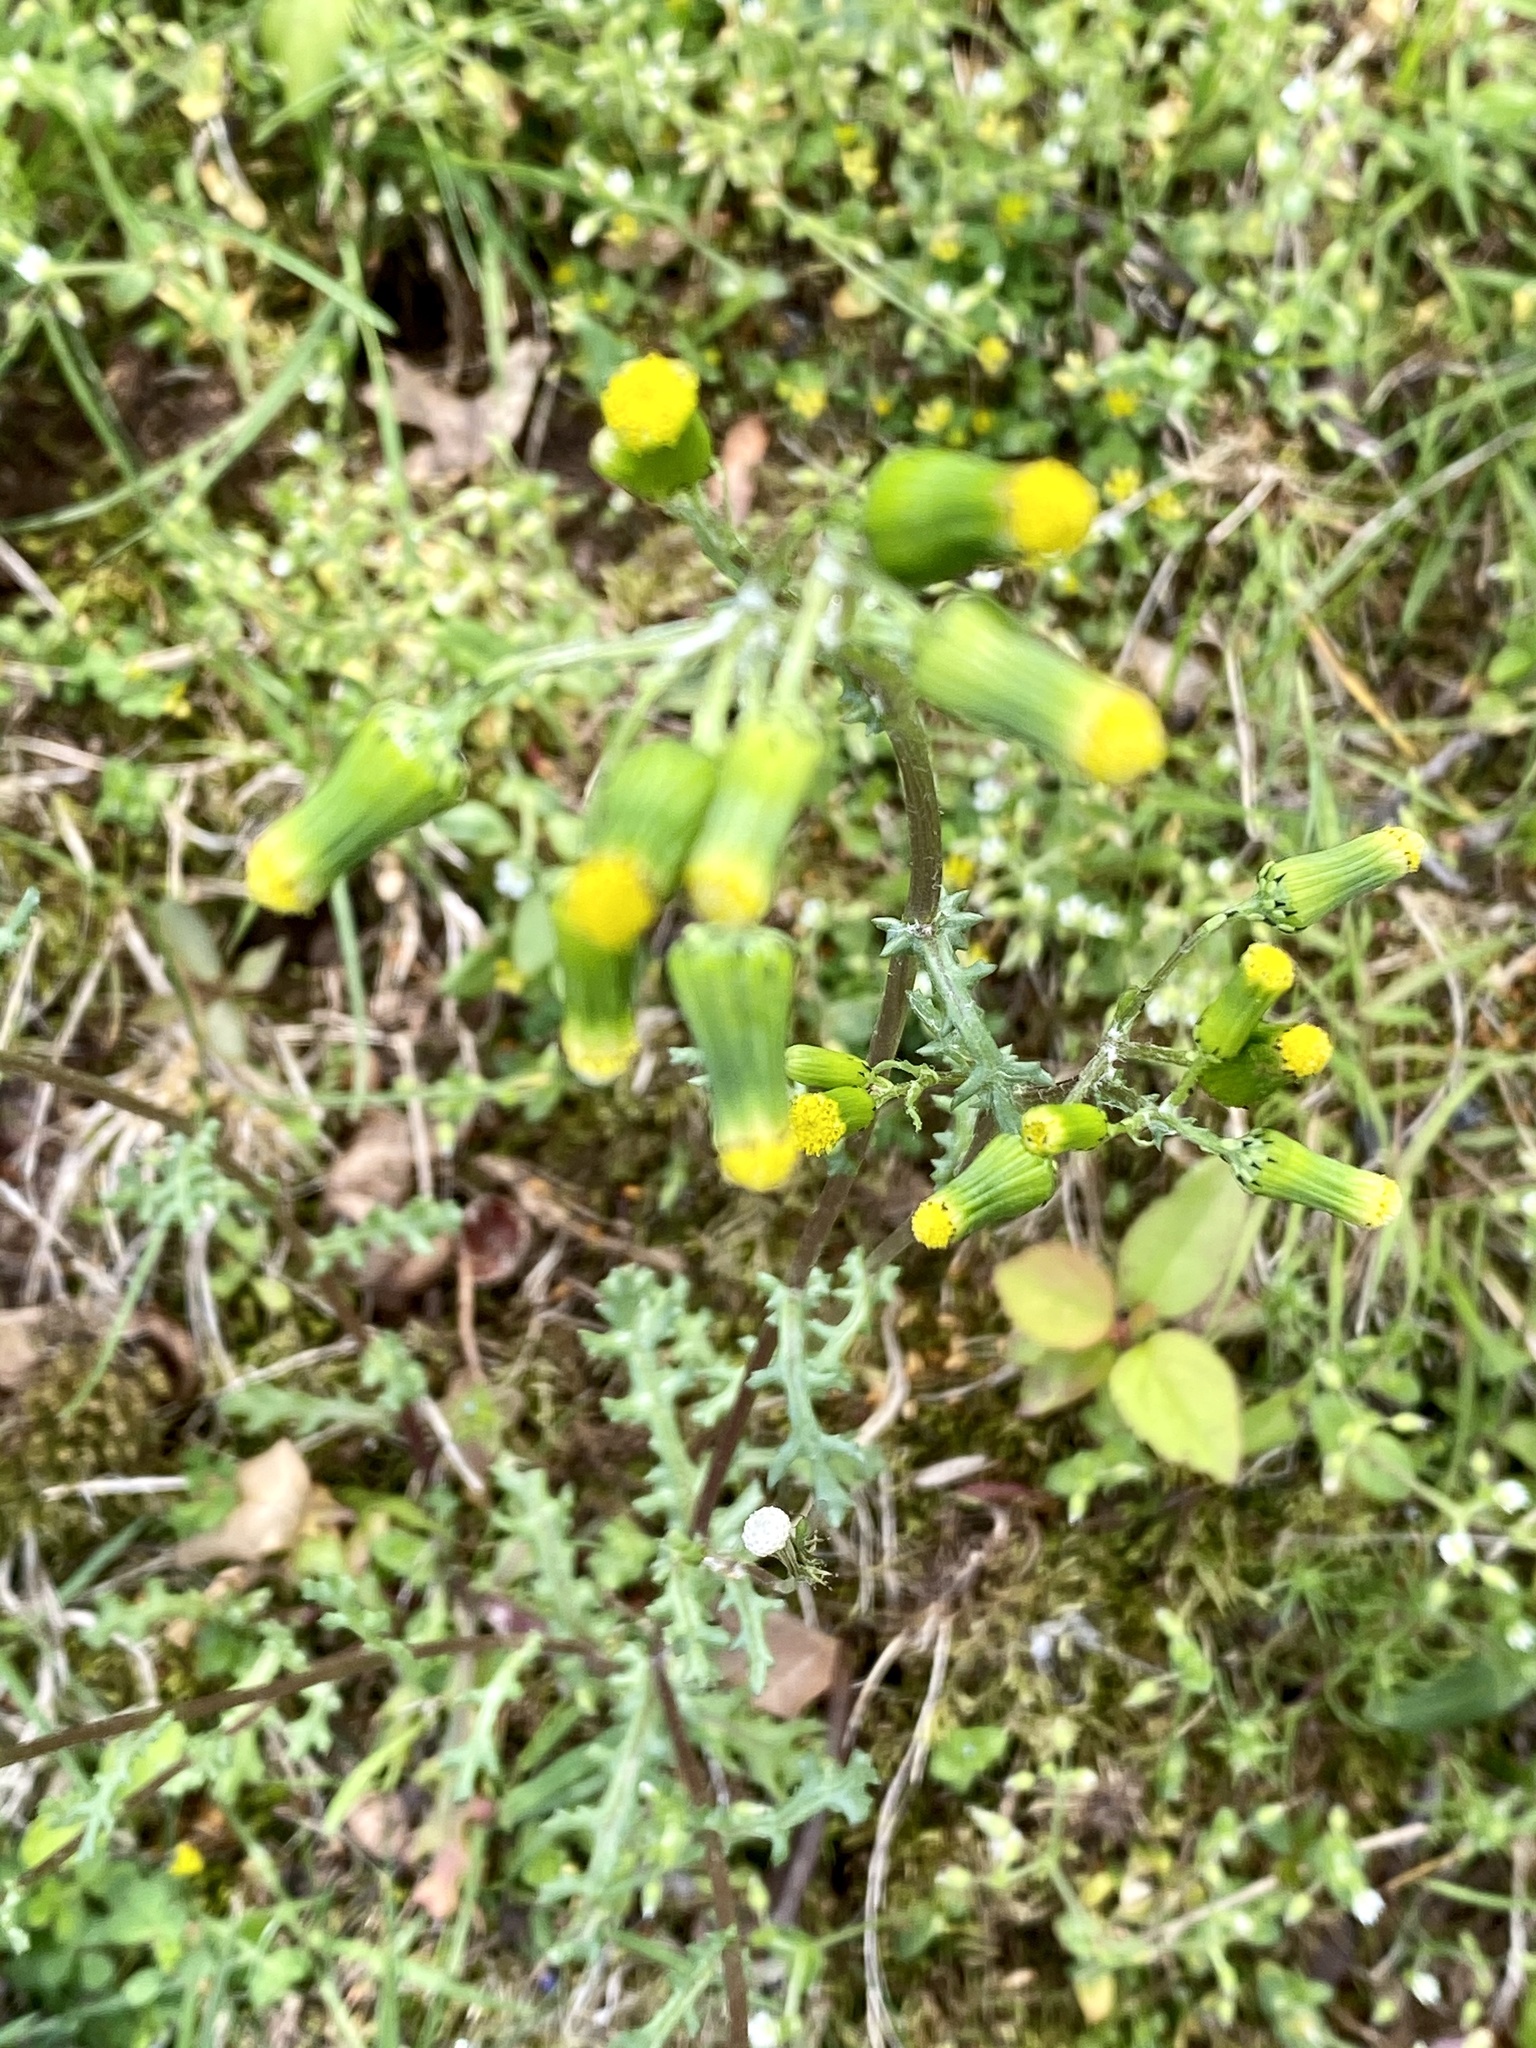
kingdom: Plantae
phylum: Tracheophyta
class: Magnoliopsida
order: Asterales
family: Asteraceae
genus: Senecio
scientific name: Senecio vulgaris
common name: Old-man-in-the-spring
